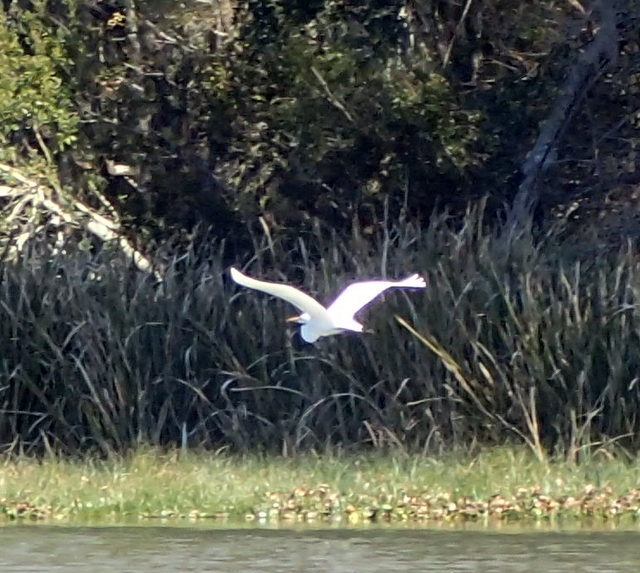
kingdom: Animalia
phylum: Chordata
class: Aves
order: Pelecaniformes
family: Ardeidae
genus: Ardea
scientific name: Ardea alba
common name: Great egret
